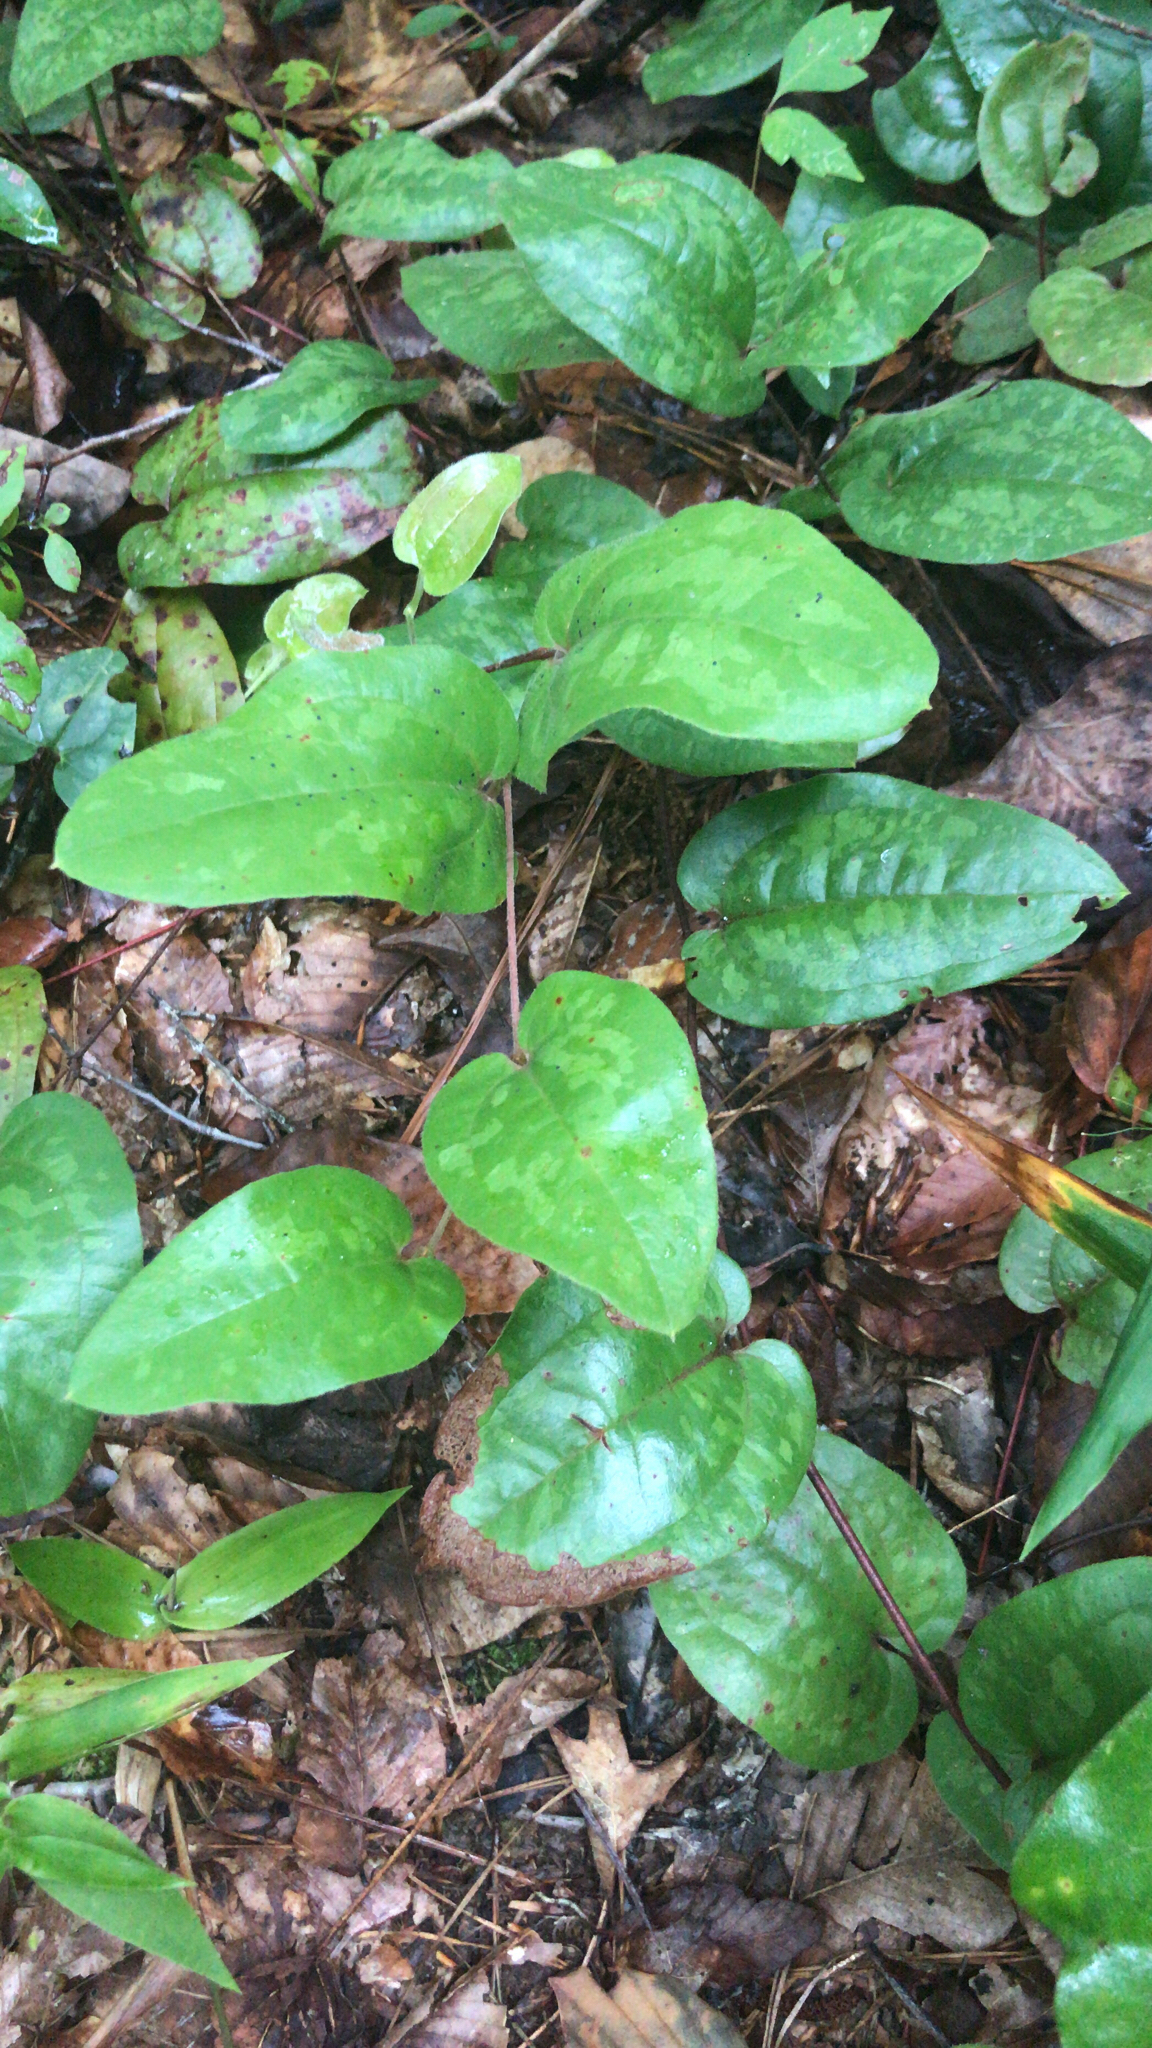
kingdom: Plantae
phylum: Tracheophyta
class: Liliopsida
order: Liliales
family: Smilacaceae
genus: Smilax
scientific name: Smilax pumila
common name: Sarsaparilla-vine
